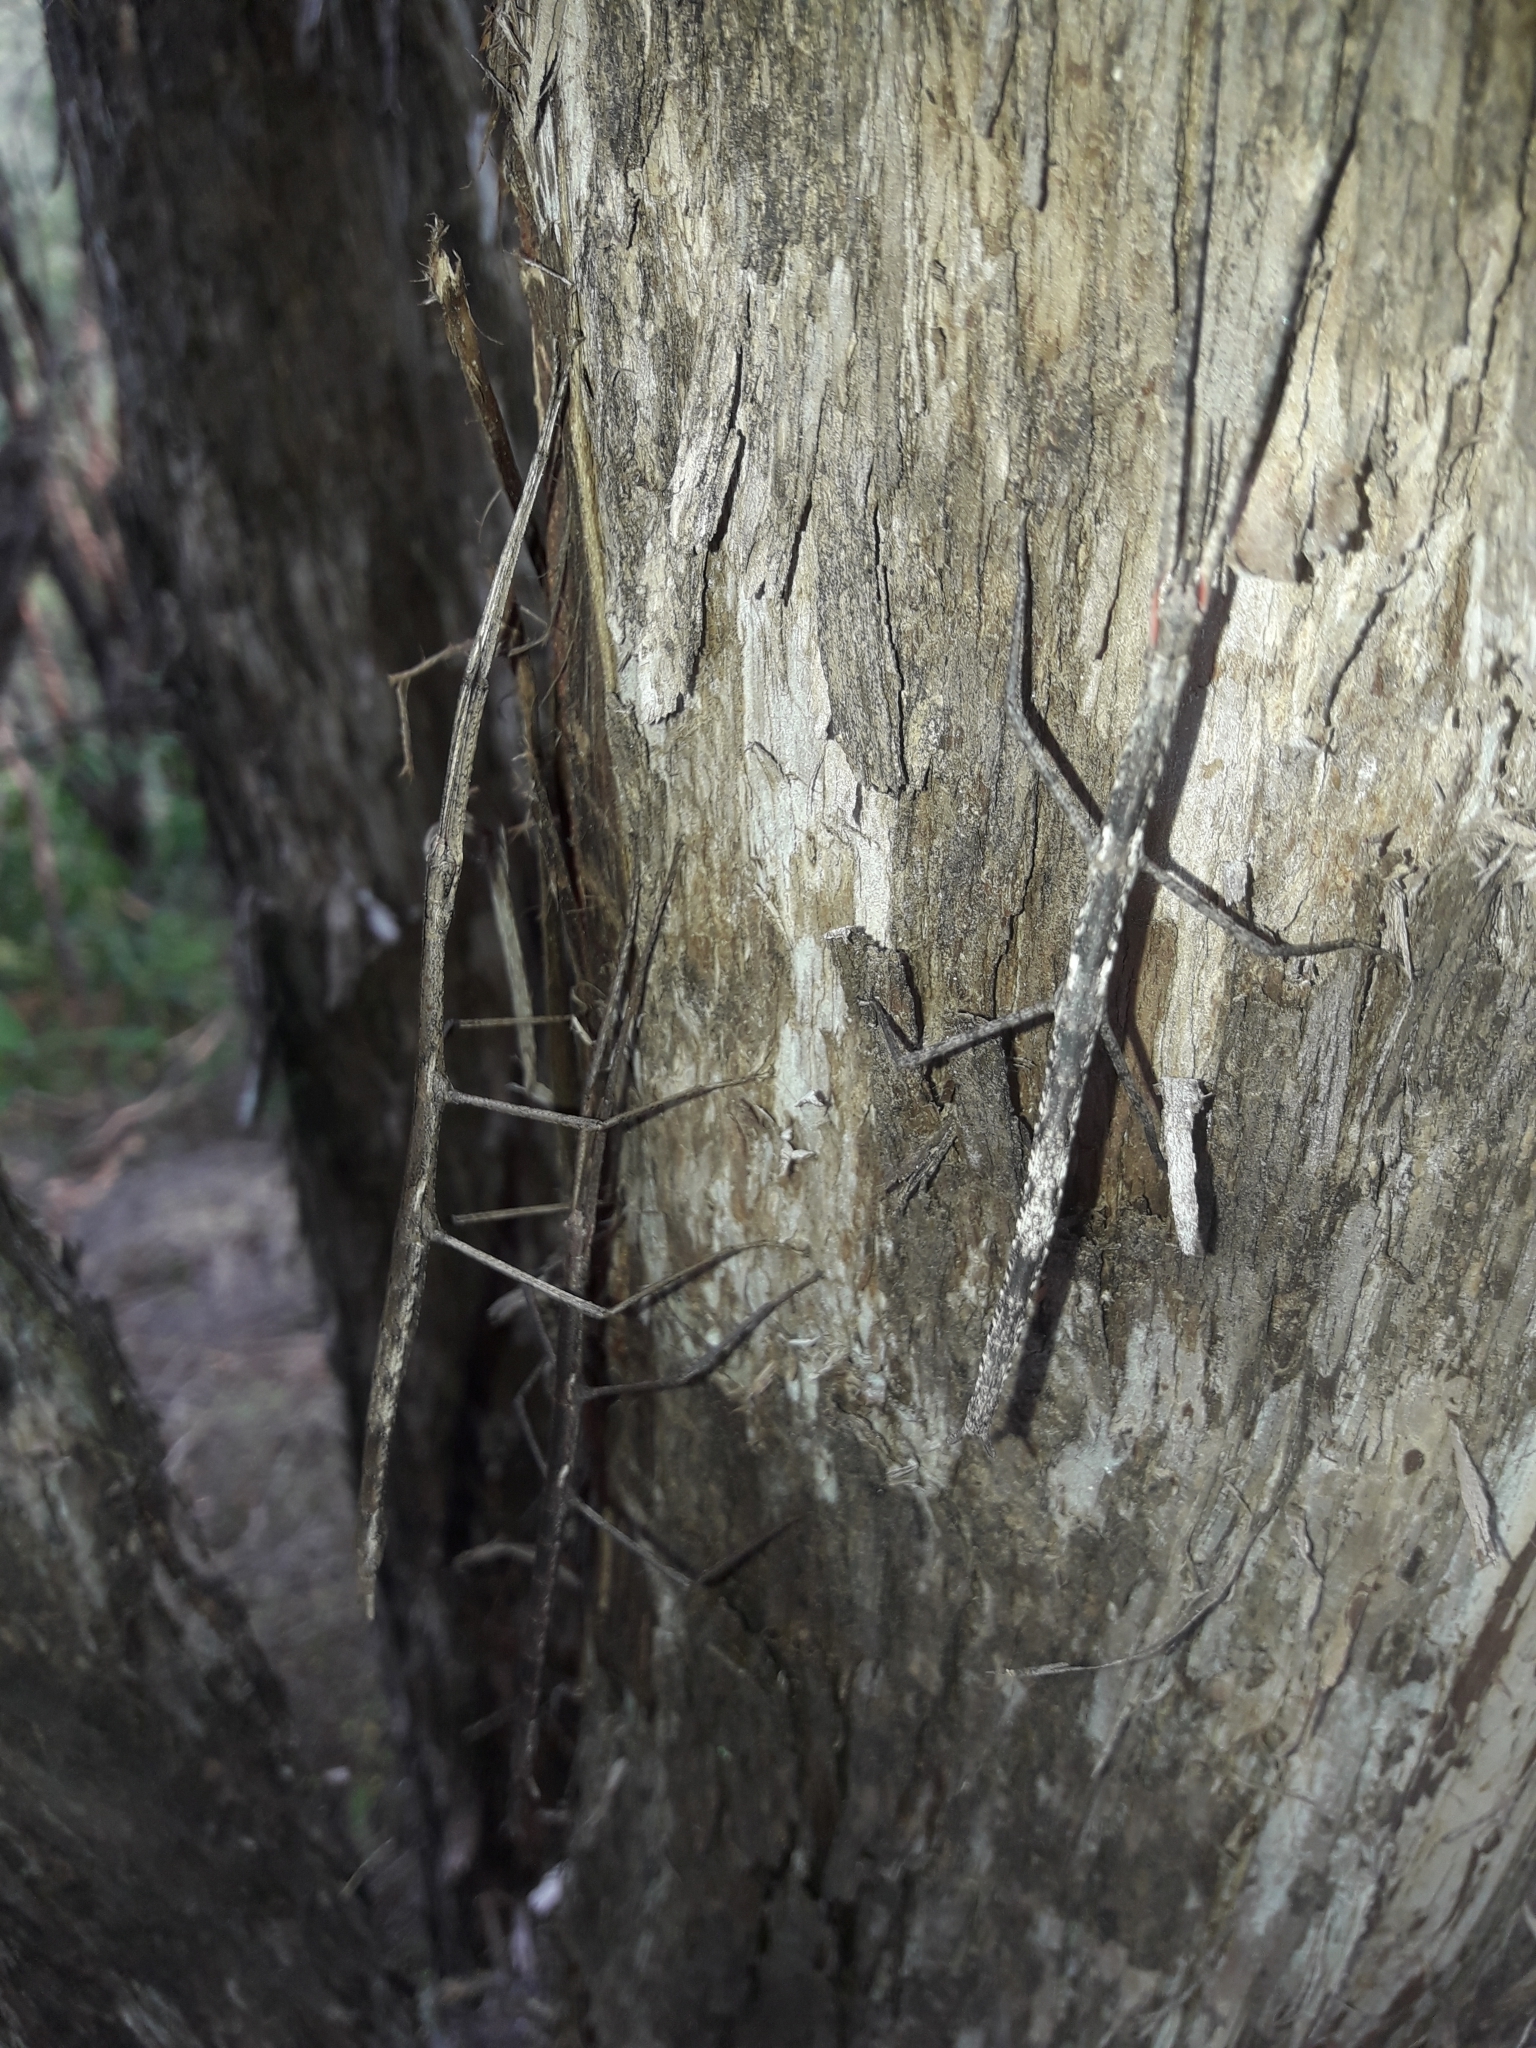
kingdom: Animalia
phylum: Arthropoda
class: Insecta
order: Phasmida
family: Phasmatidae
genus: Clitarchus
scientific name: Clitarchus hookeri
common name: Smooth stick insect
